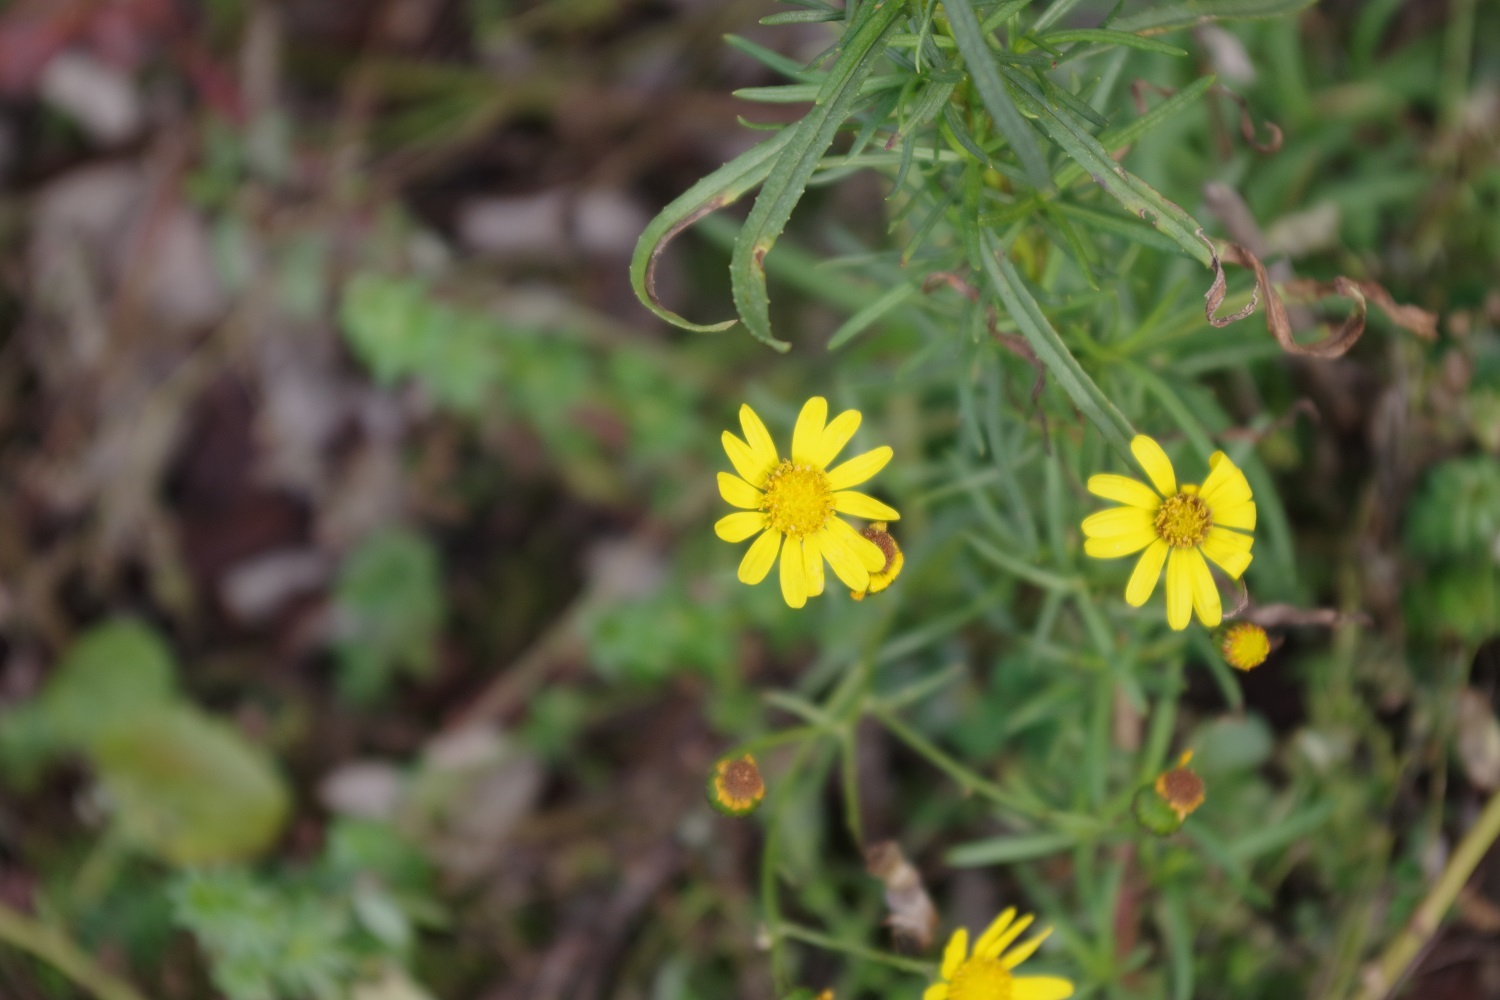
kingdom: Plantae
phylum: Tracheophyta
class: Magnoliopsida
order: Asterales
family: Asteraceae
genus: Senecio
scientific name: Senecio inaequidens
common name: Narrow-leaved ragwort
